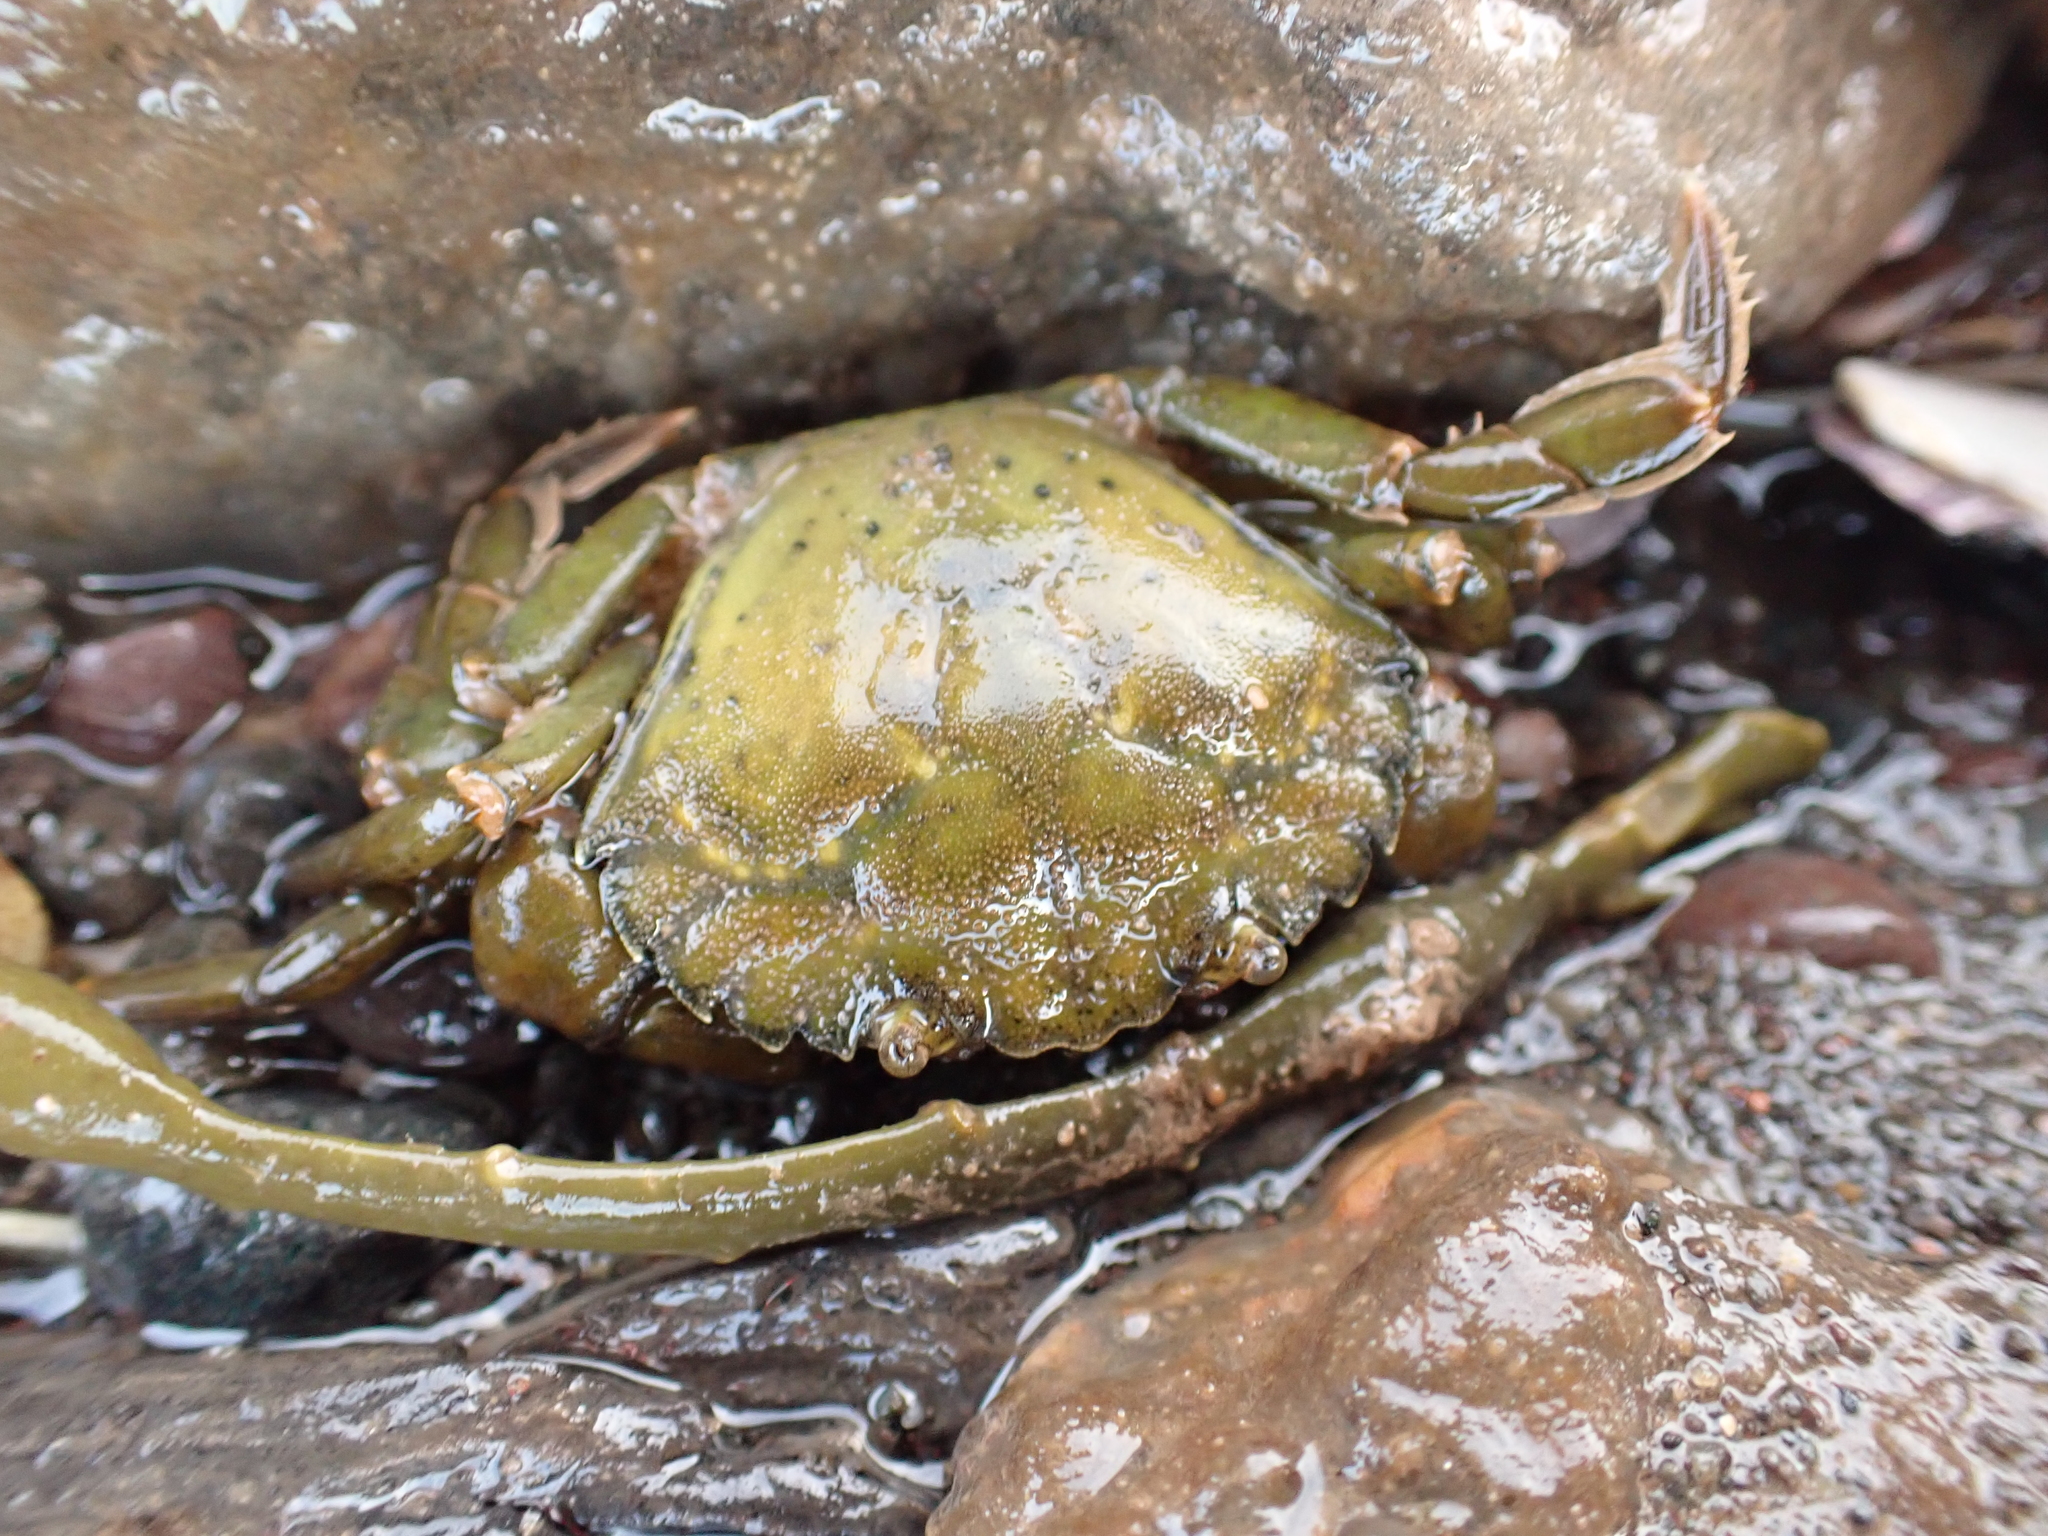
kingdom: Animalia
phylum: Arthropoda
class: Malacostraca
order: Decapoda
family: Carcinidae
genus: Carcinus
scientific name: Carcinus maenas
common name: European green crab
